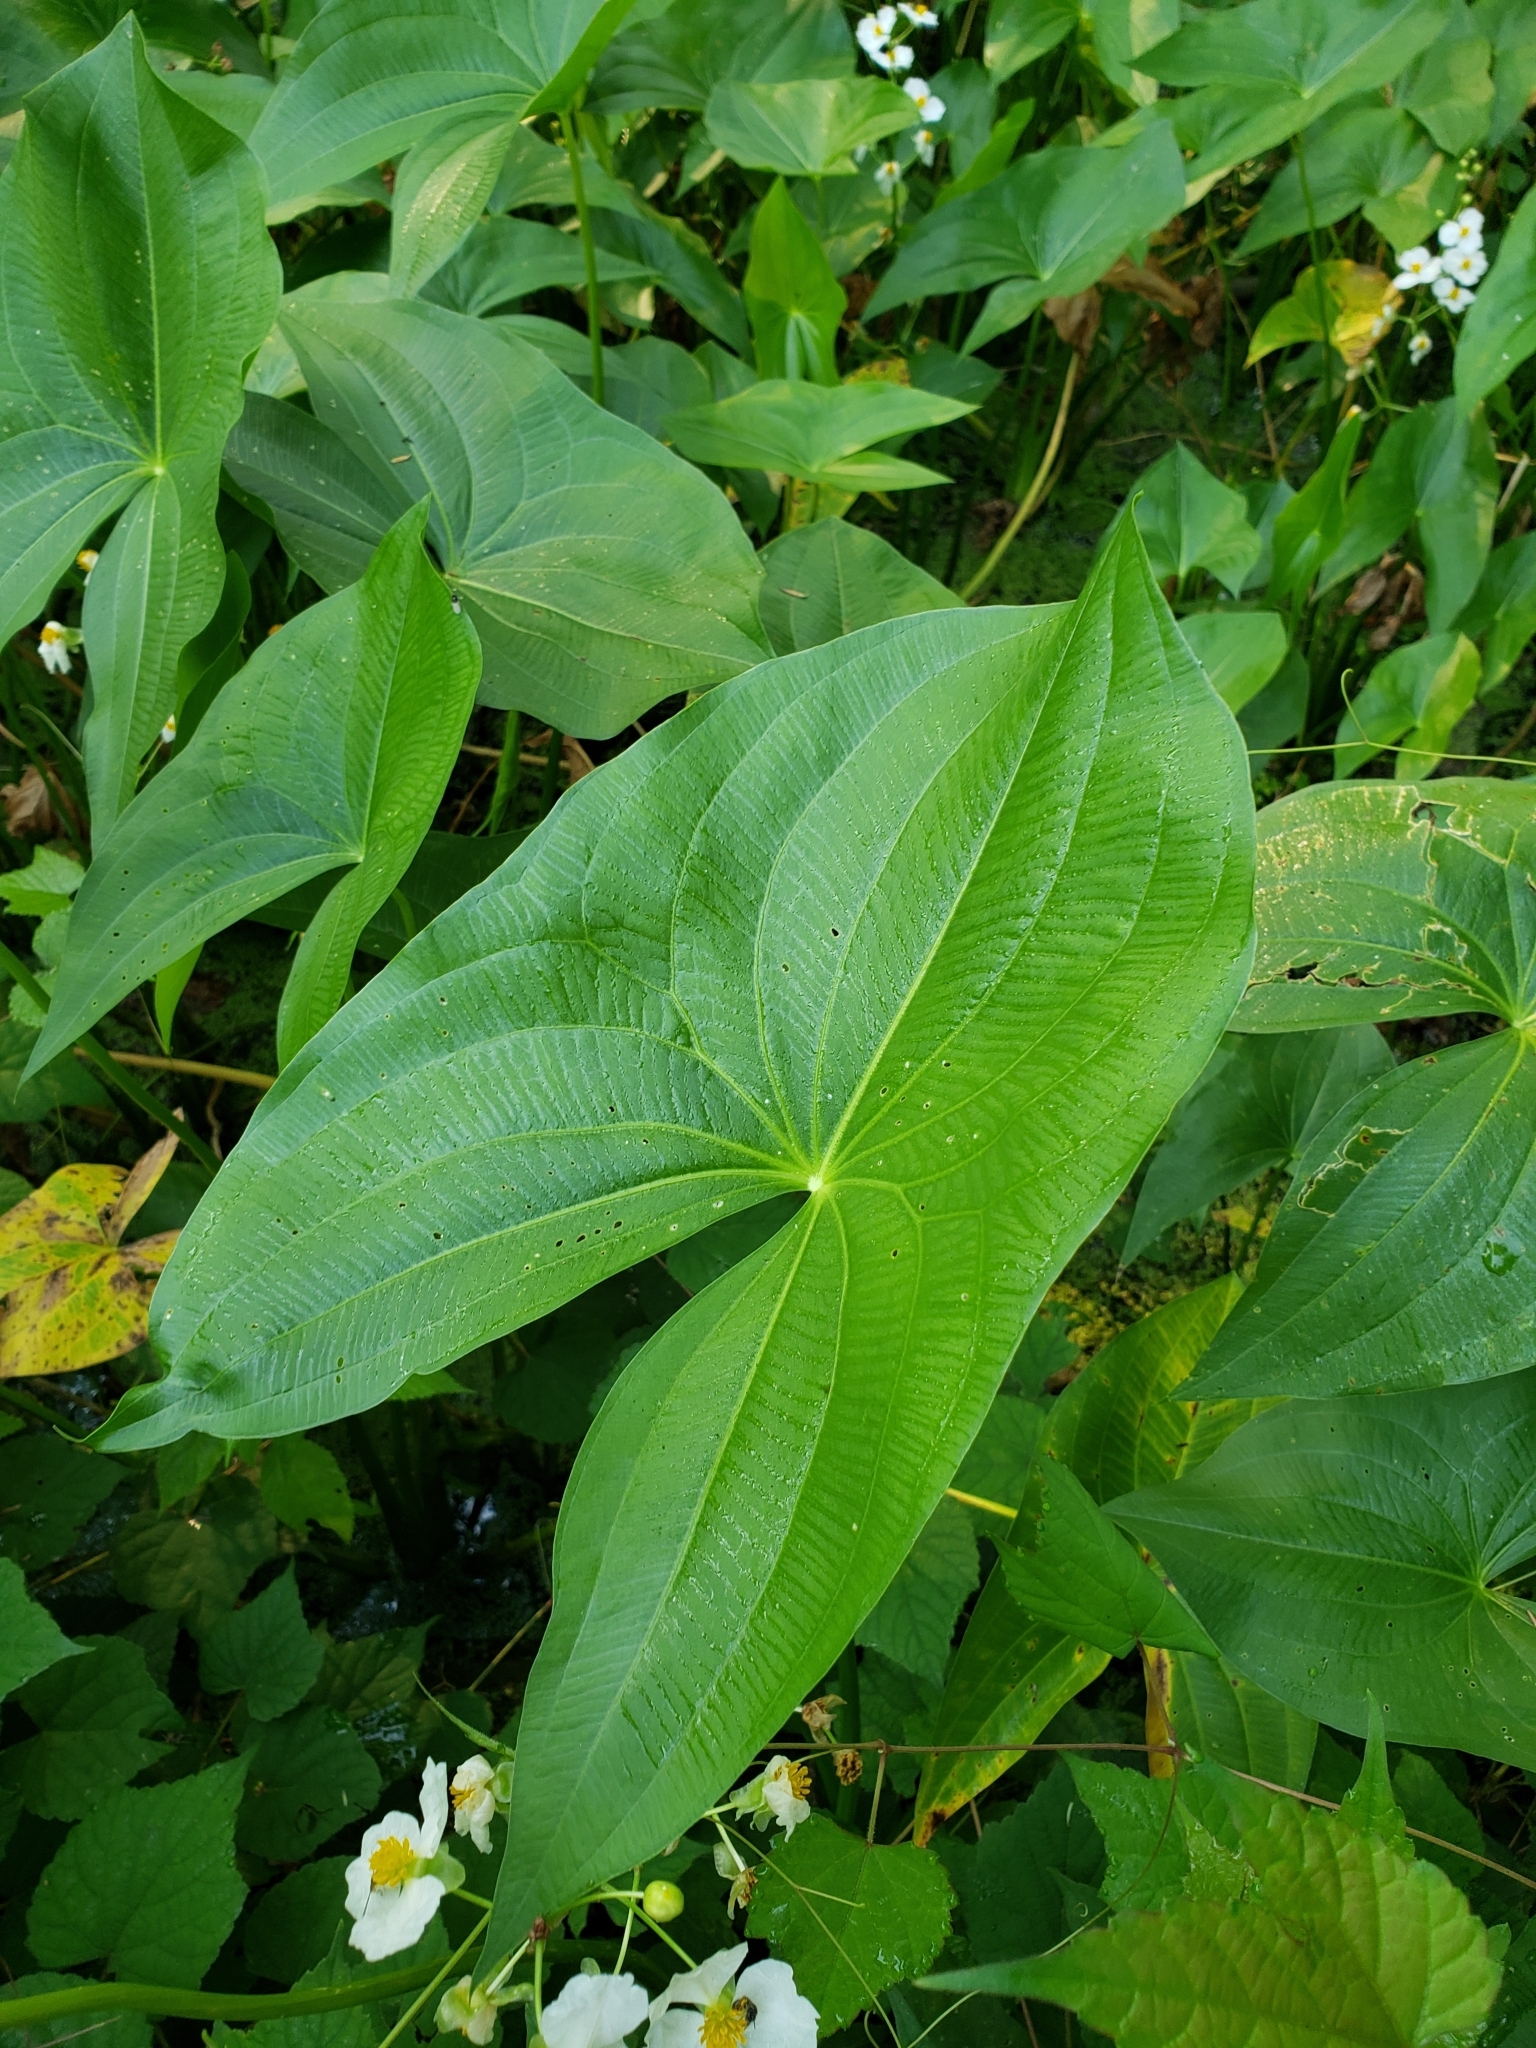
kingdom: Plantae
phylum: Tracheophyta
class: Liliopsida
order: Alismatales
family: Alismataceae
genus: Sagittaria
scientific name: Sagittaria latifolia
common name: Duck-potato
